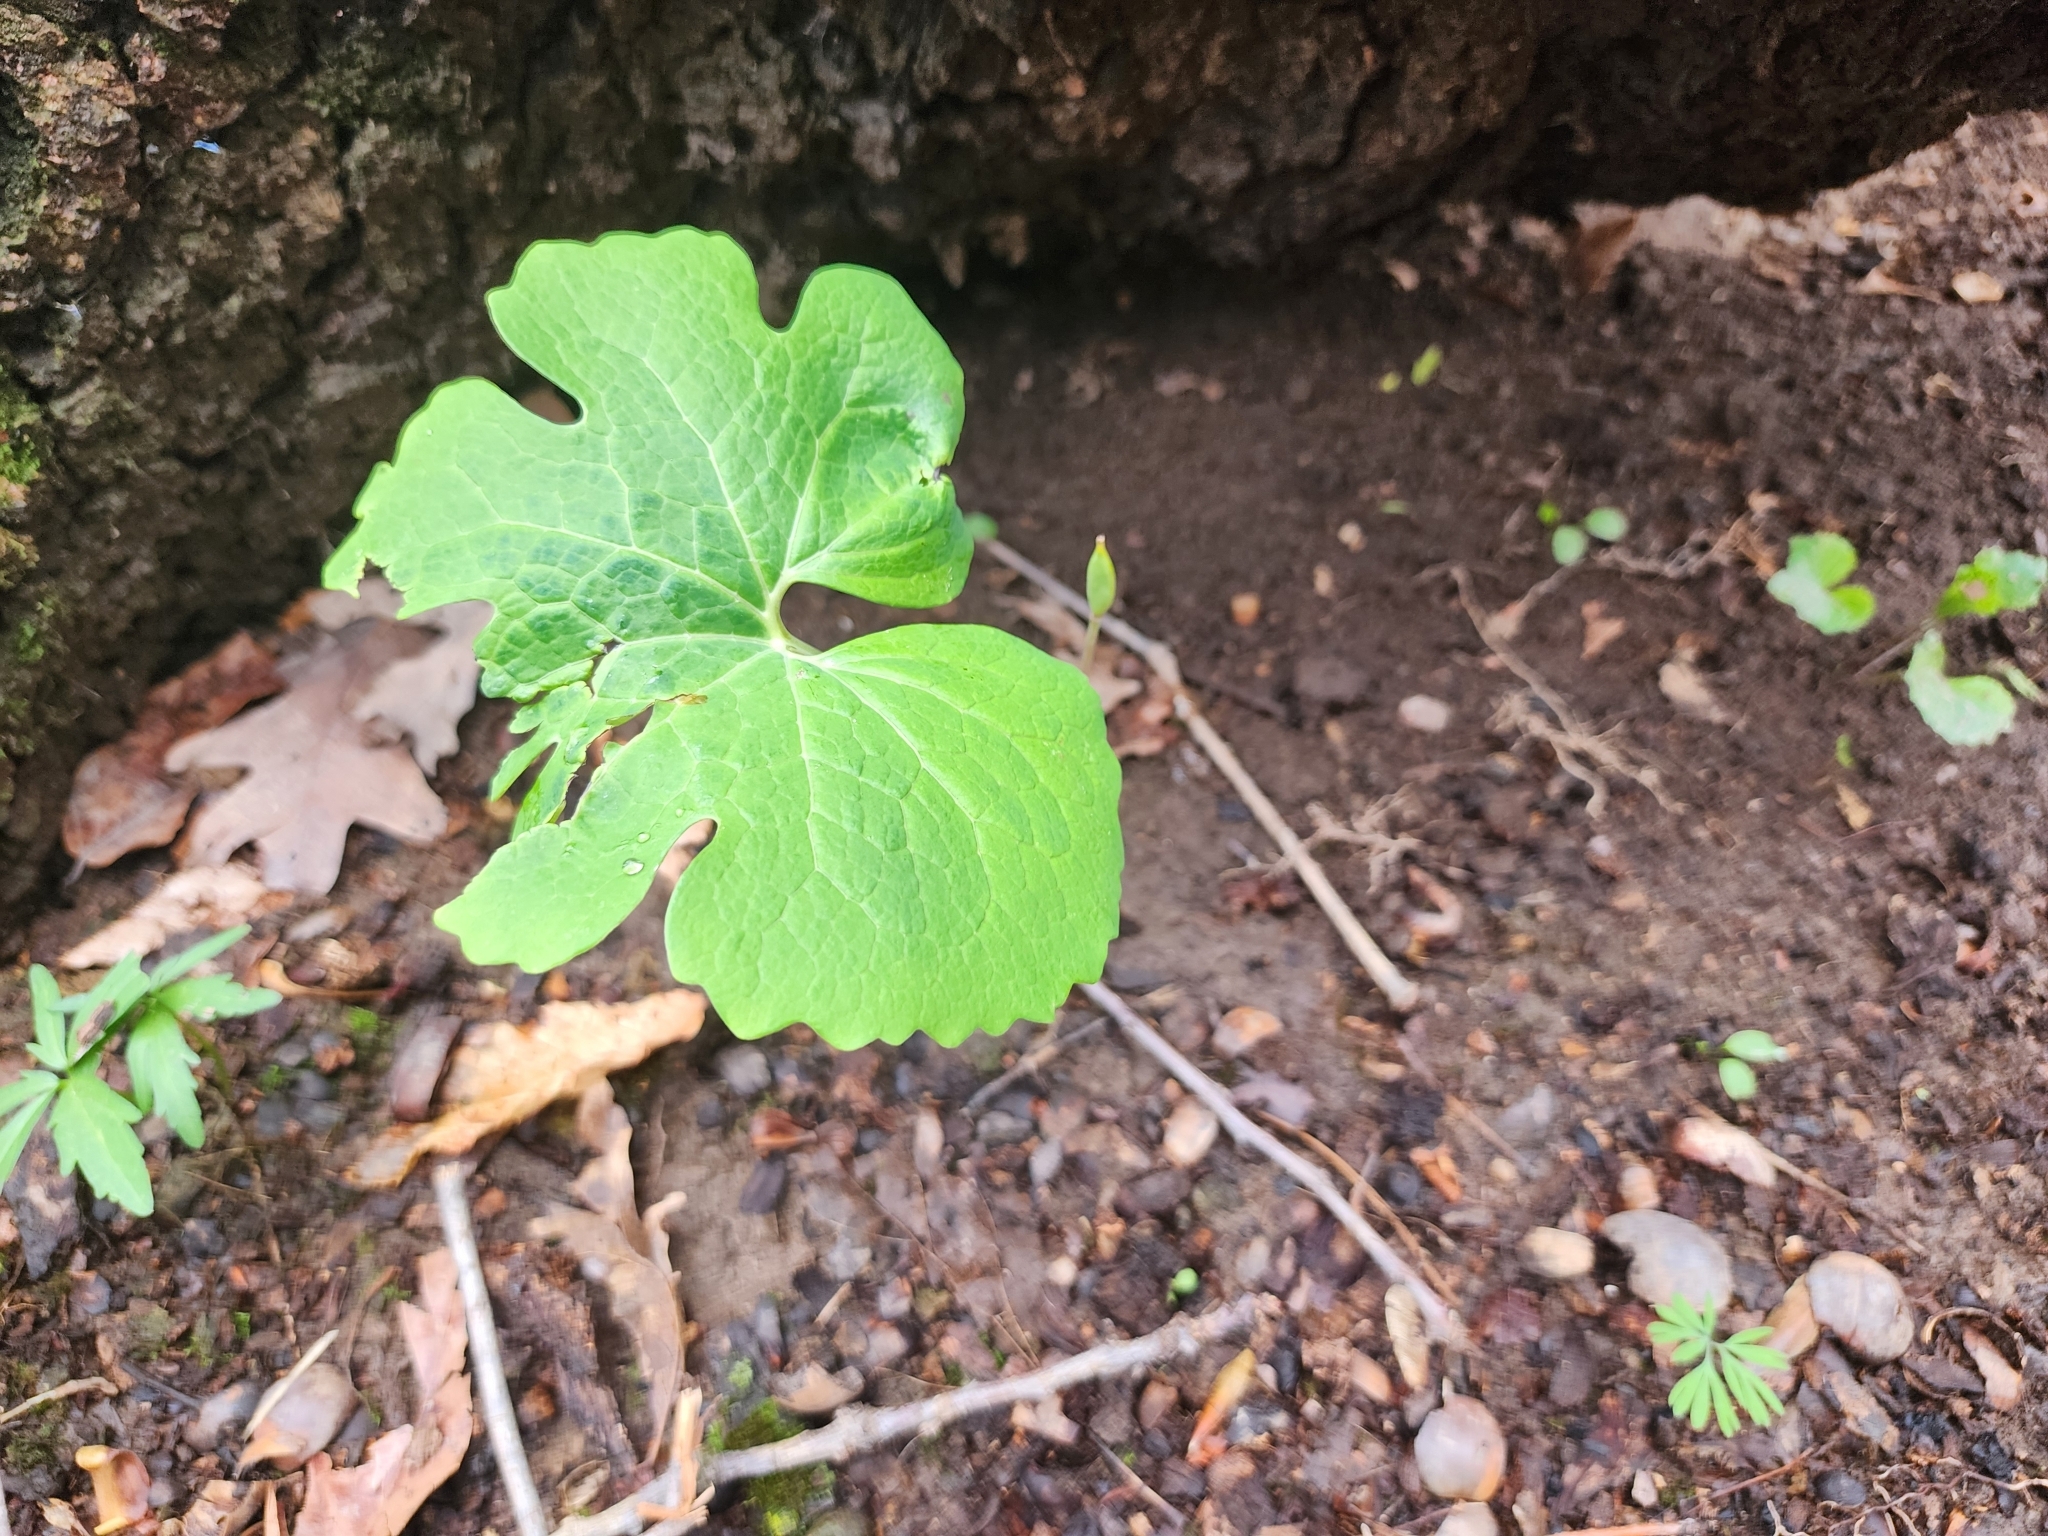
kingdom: Plantae
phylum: Tracheophyta
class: Magnoliopsida
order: Ranunculales
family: Papaveraceae
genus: Sanguinaria
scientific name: Sanguinaria canadensis
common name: Bloodroot
